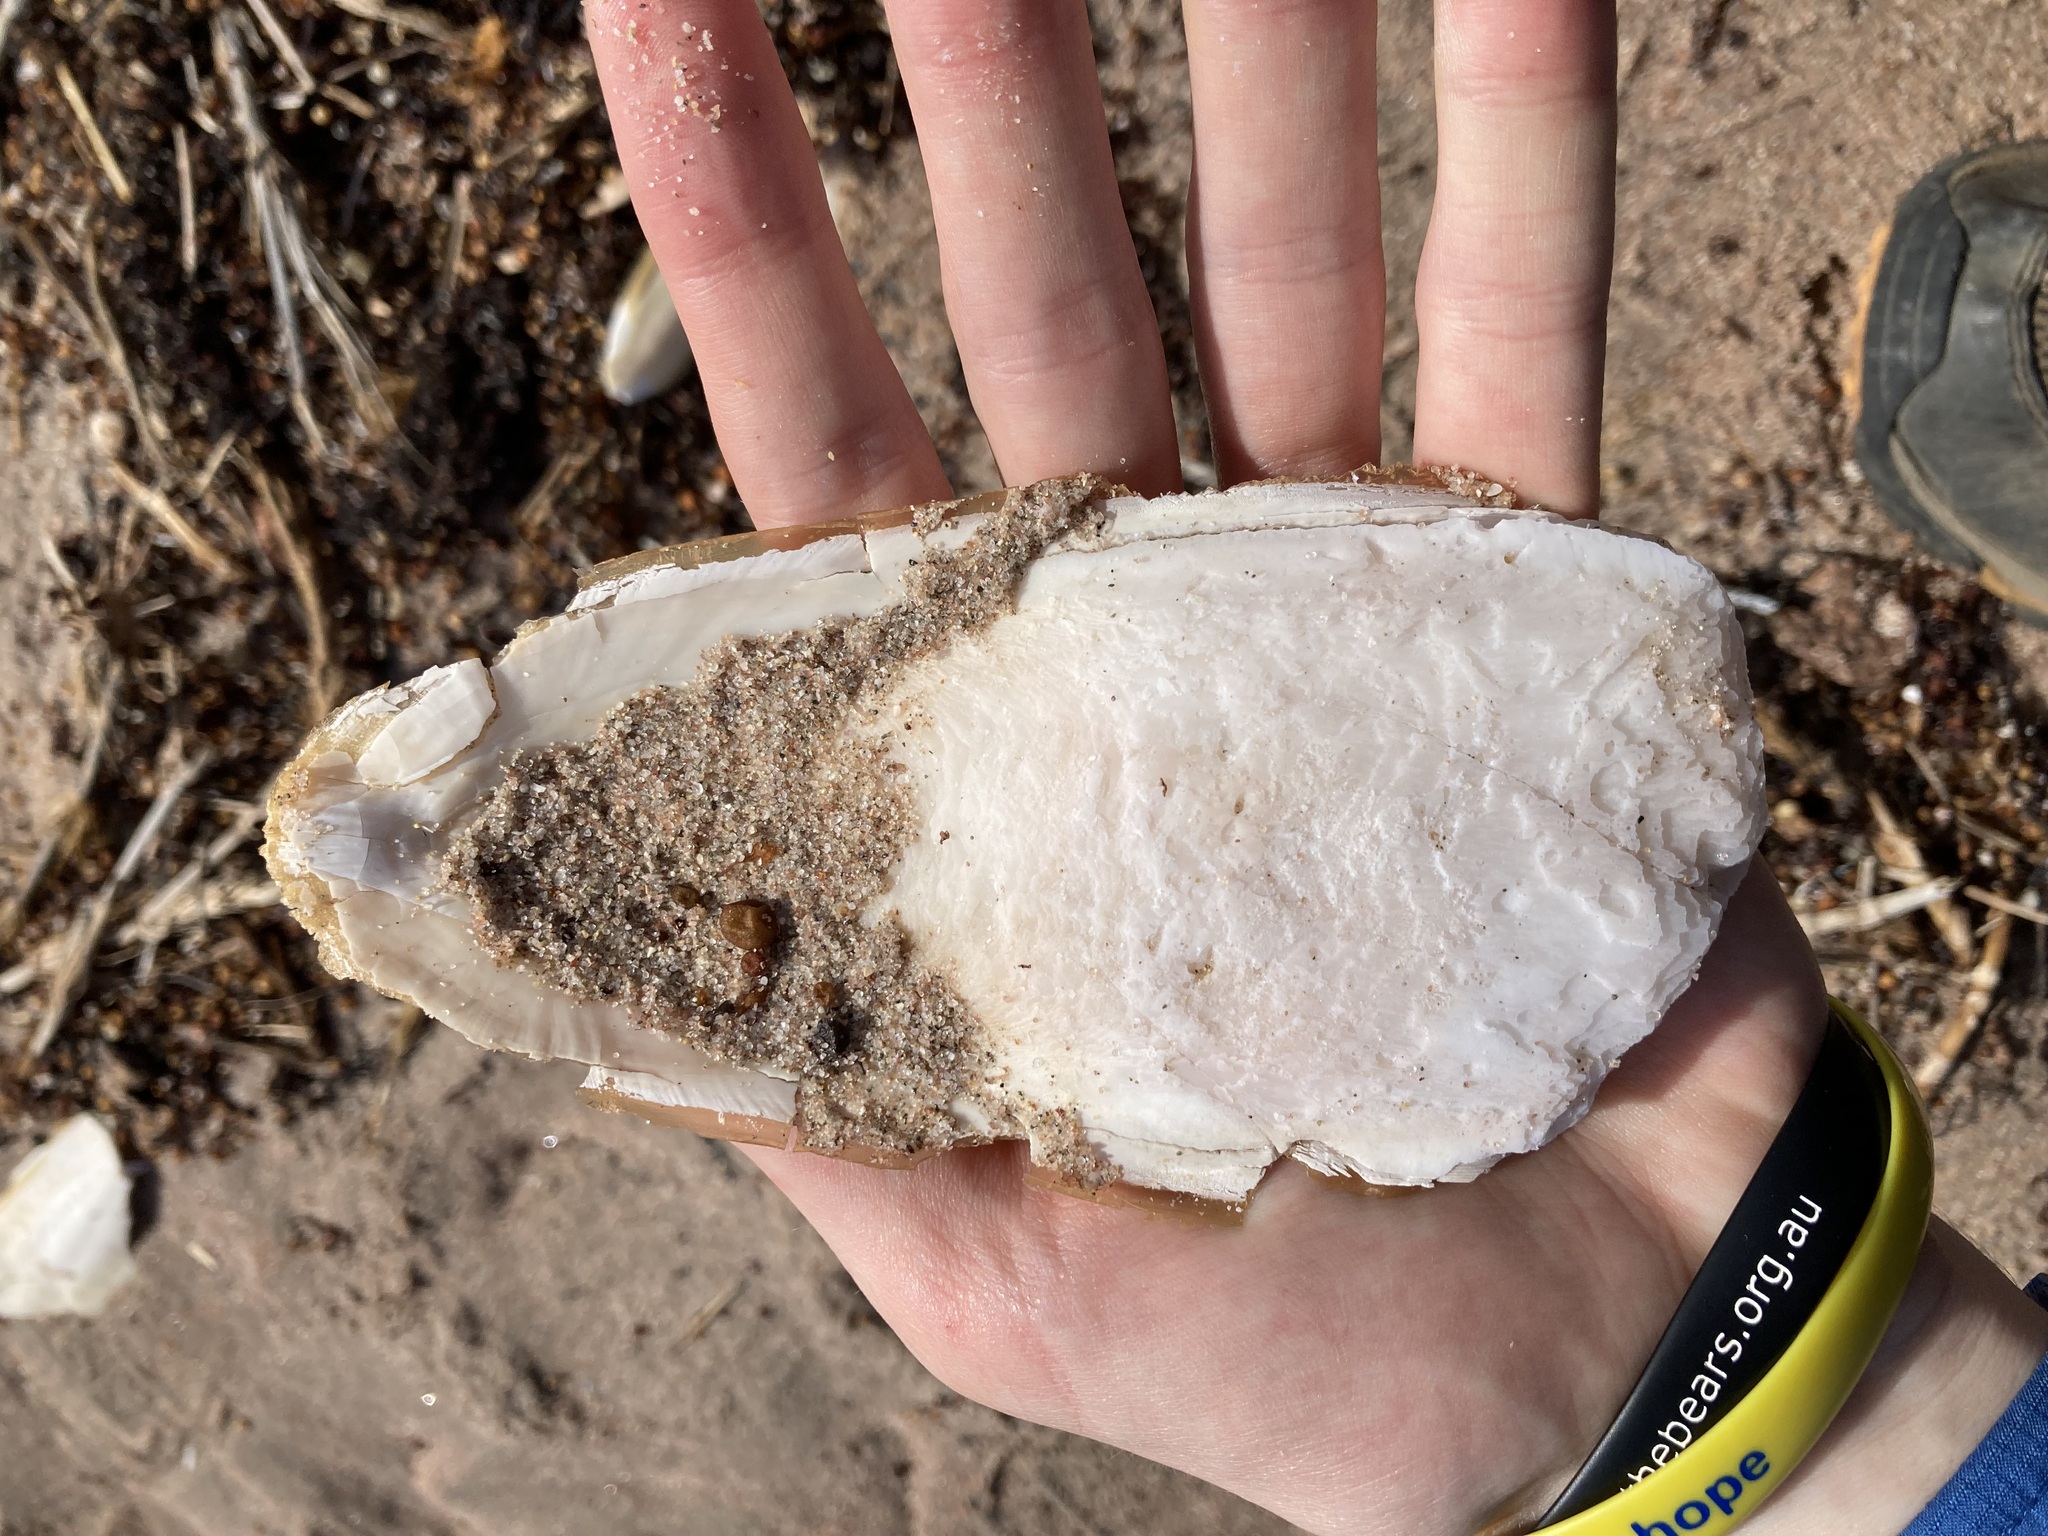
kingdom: Animalia
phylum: Mollusca
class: Cephalopoda
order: Sepiida
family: Sepiidae
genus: Ascarosepion
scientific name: Ascarosepion apama
